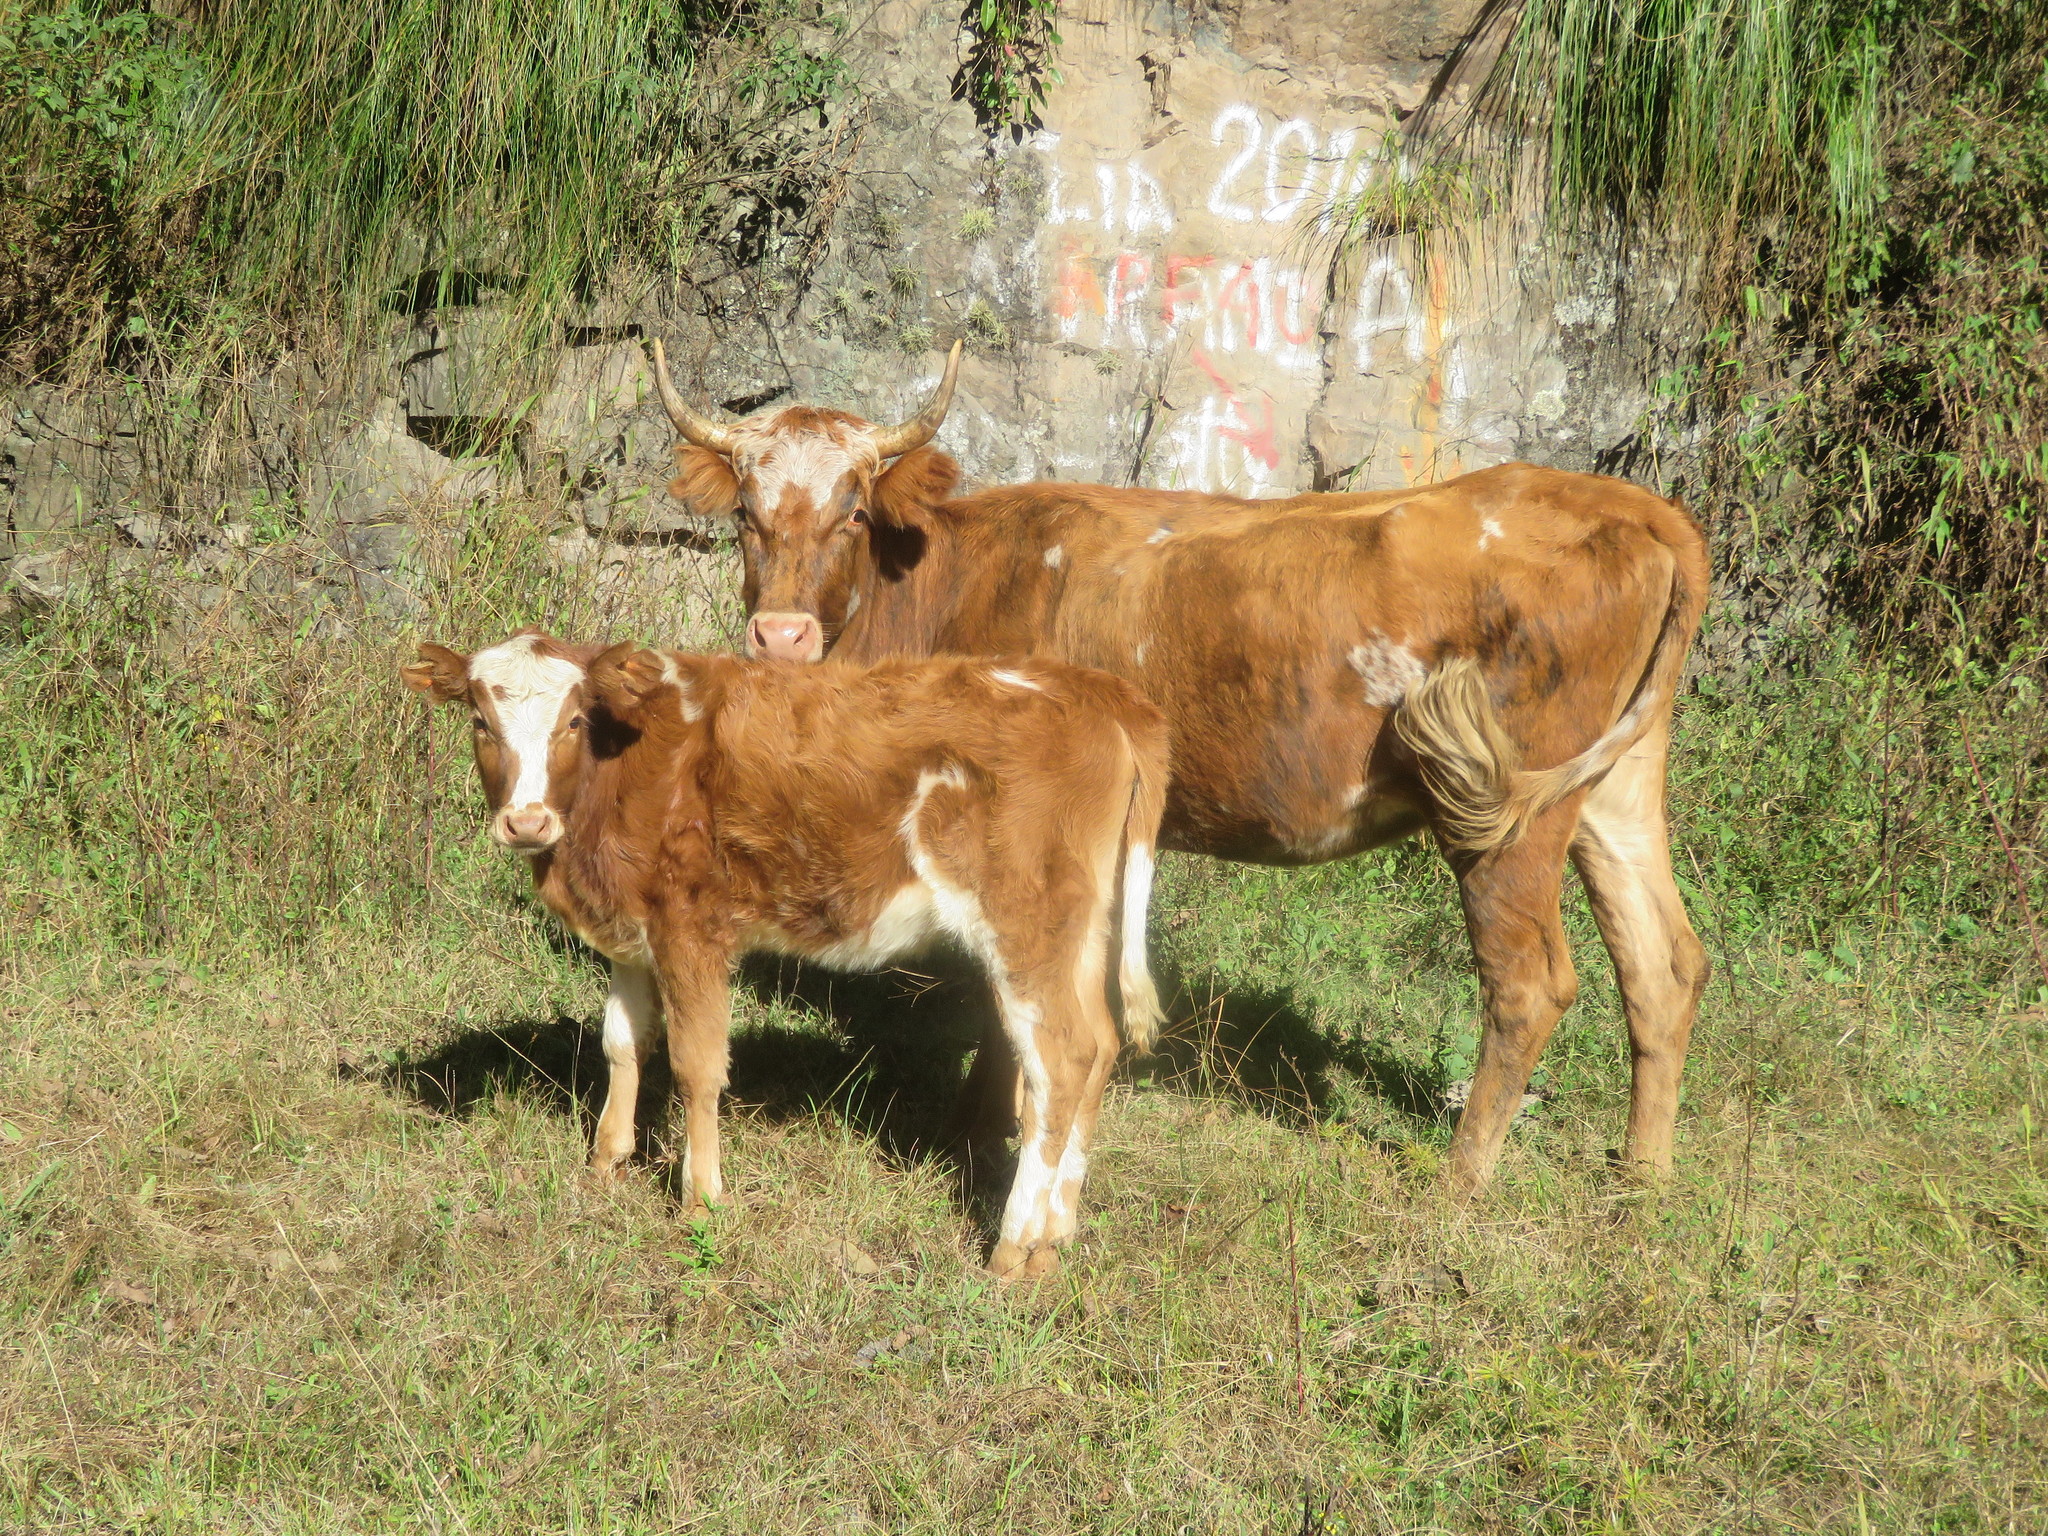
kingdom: Animalia
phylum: Chordata
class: Mammalia
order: Artiodactyla
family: Bovidae
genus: Bos
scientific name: Bos taurus
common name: Domesticated cattle
